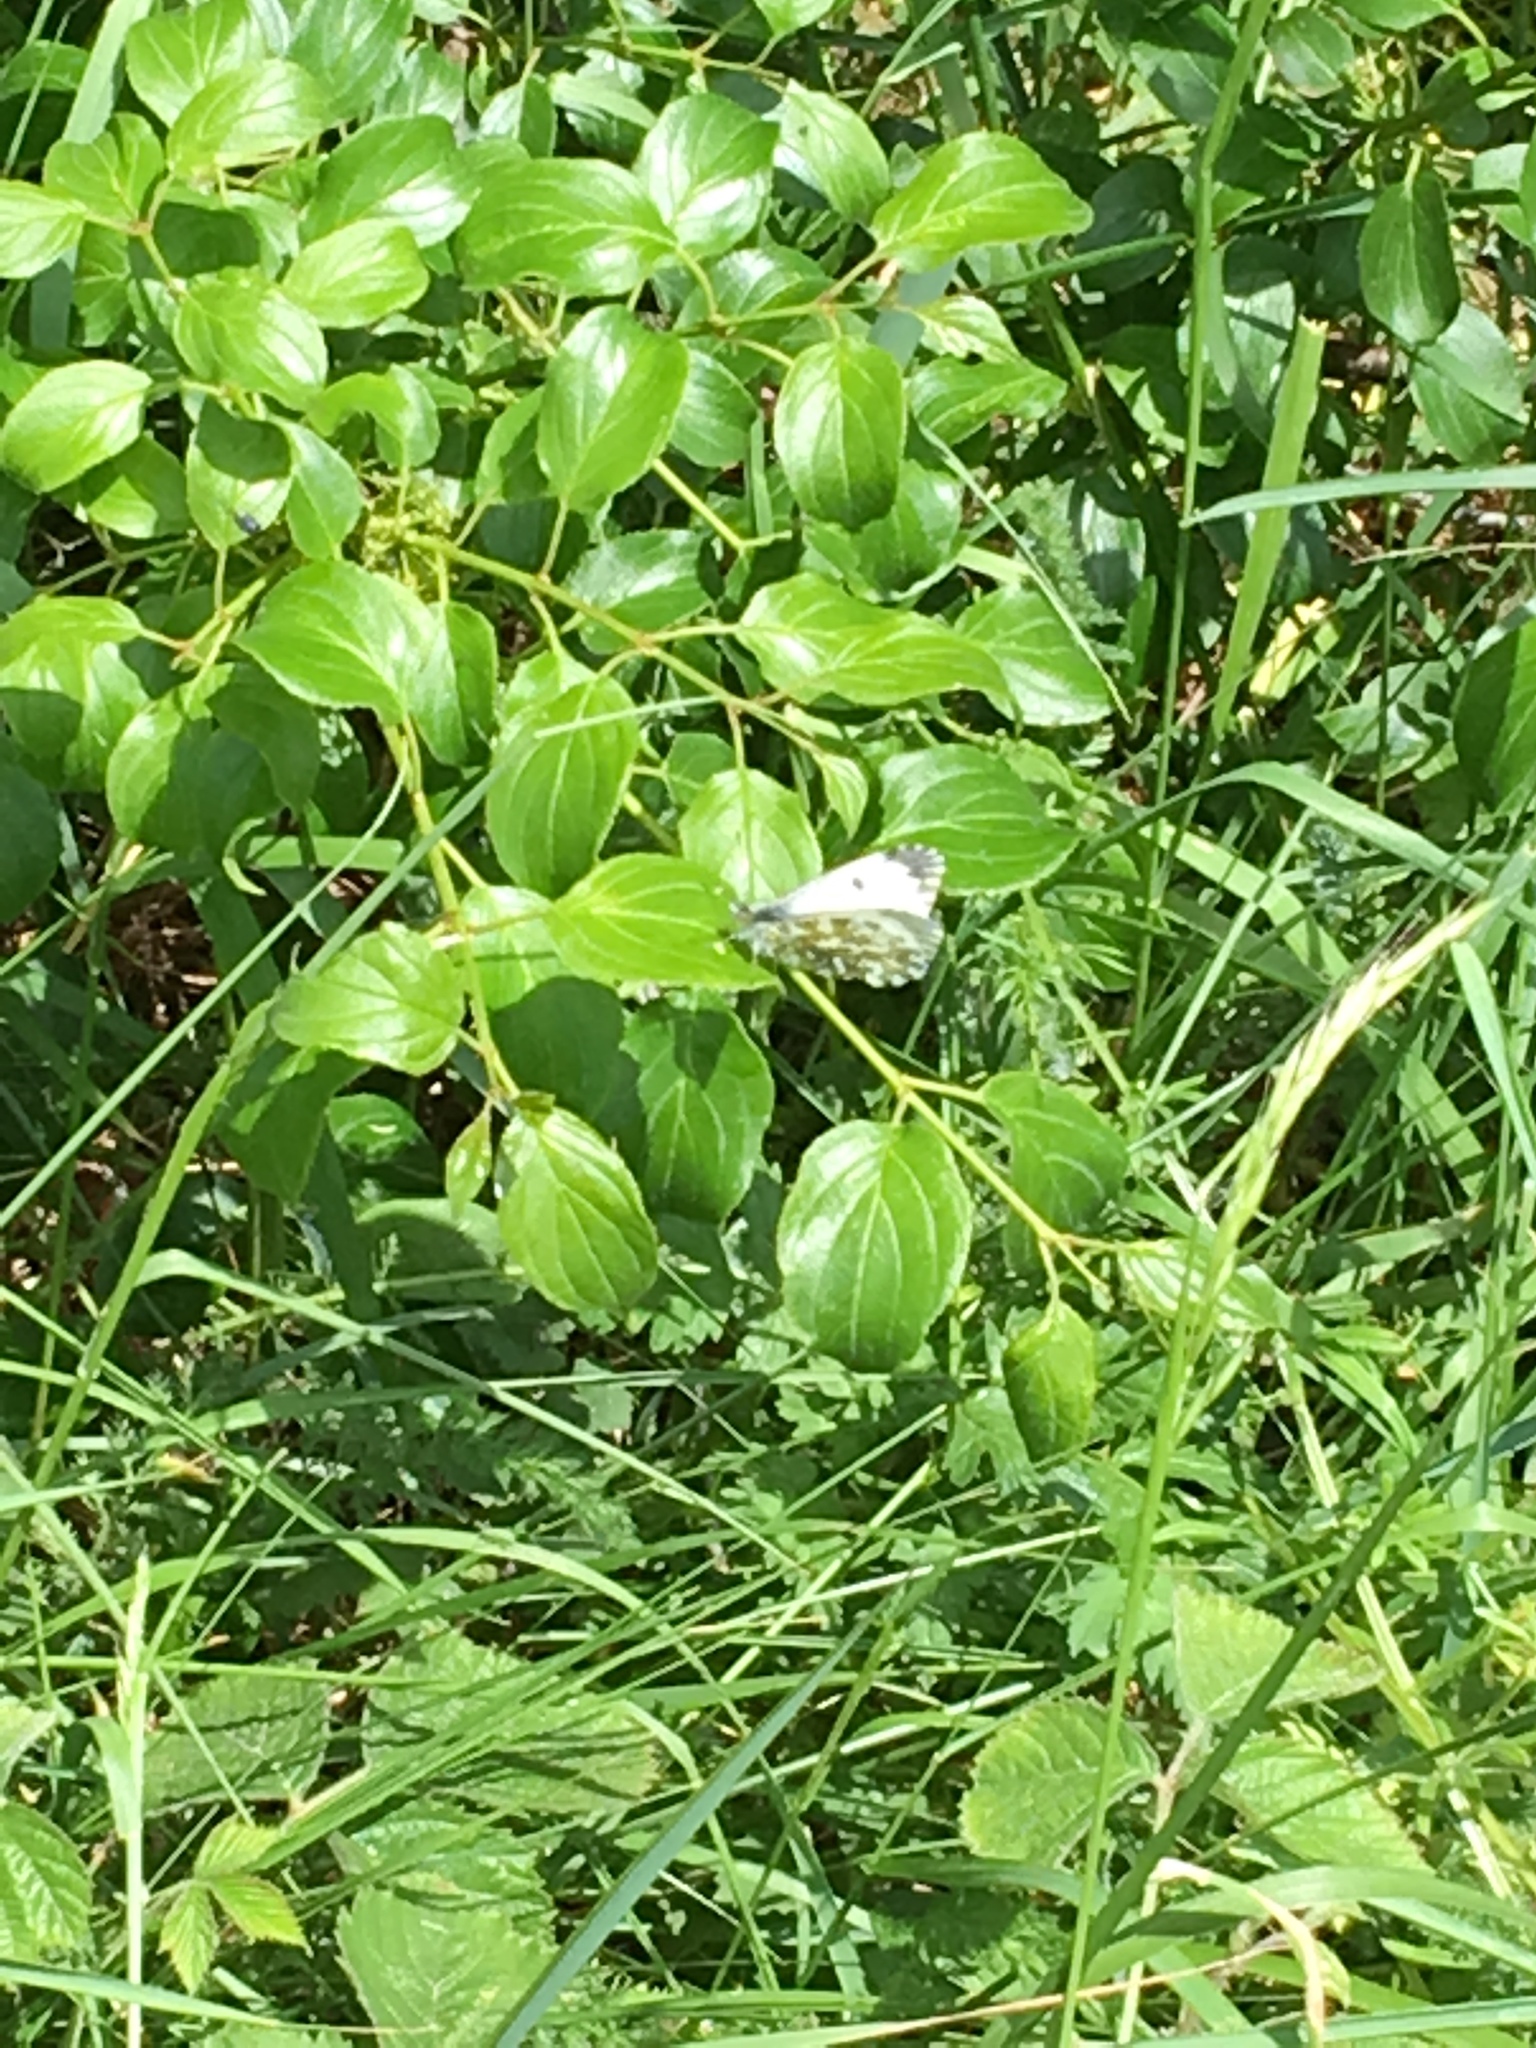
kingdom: Animalia
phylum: Arthropoda
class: Insecta
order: Lepidoptera
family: Pieridae
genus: Anthocharis
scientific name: Anthocharis cardamines
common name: Orange-tip
